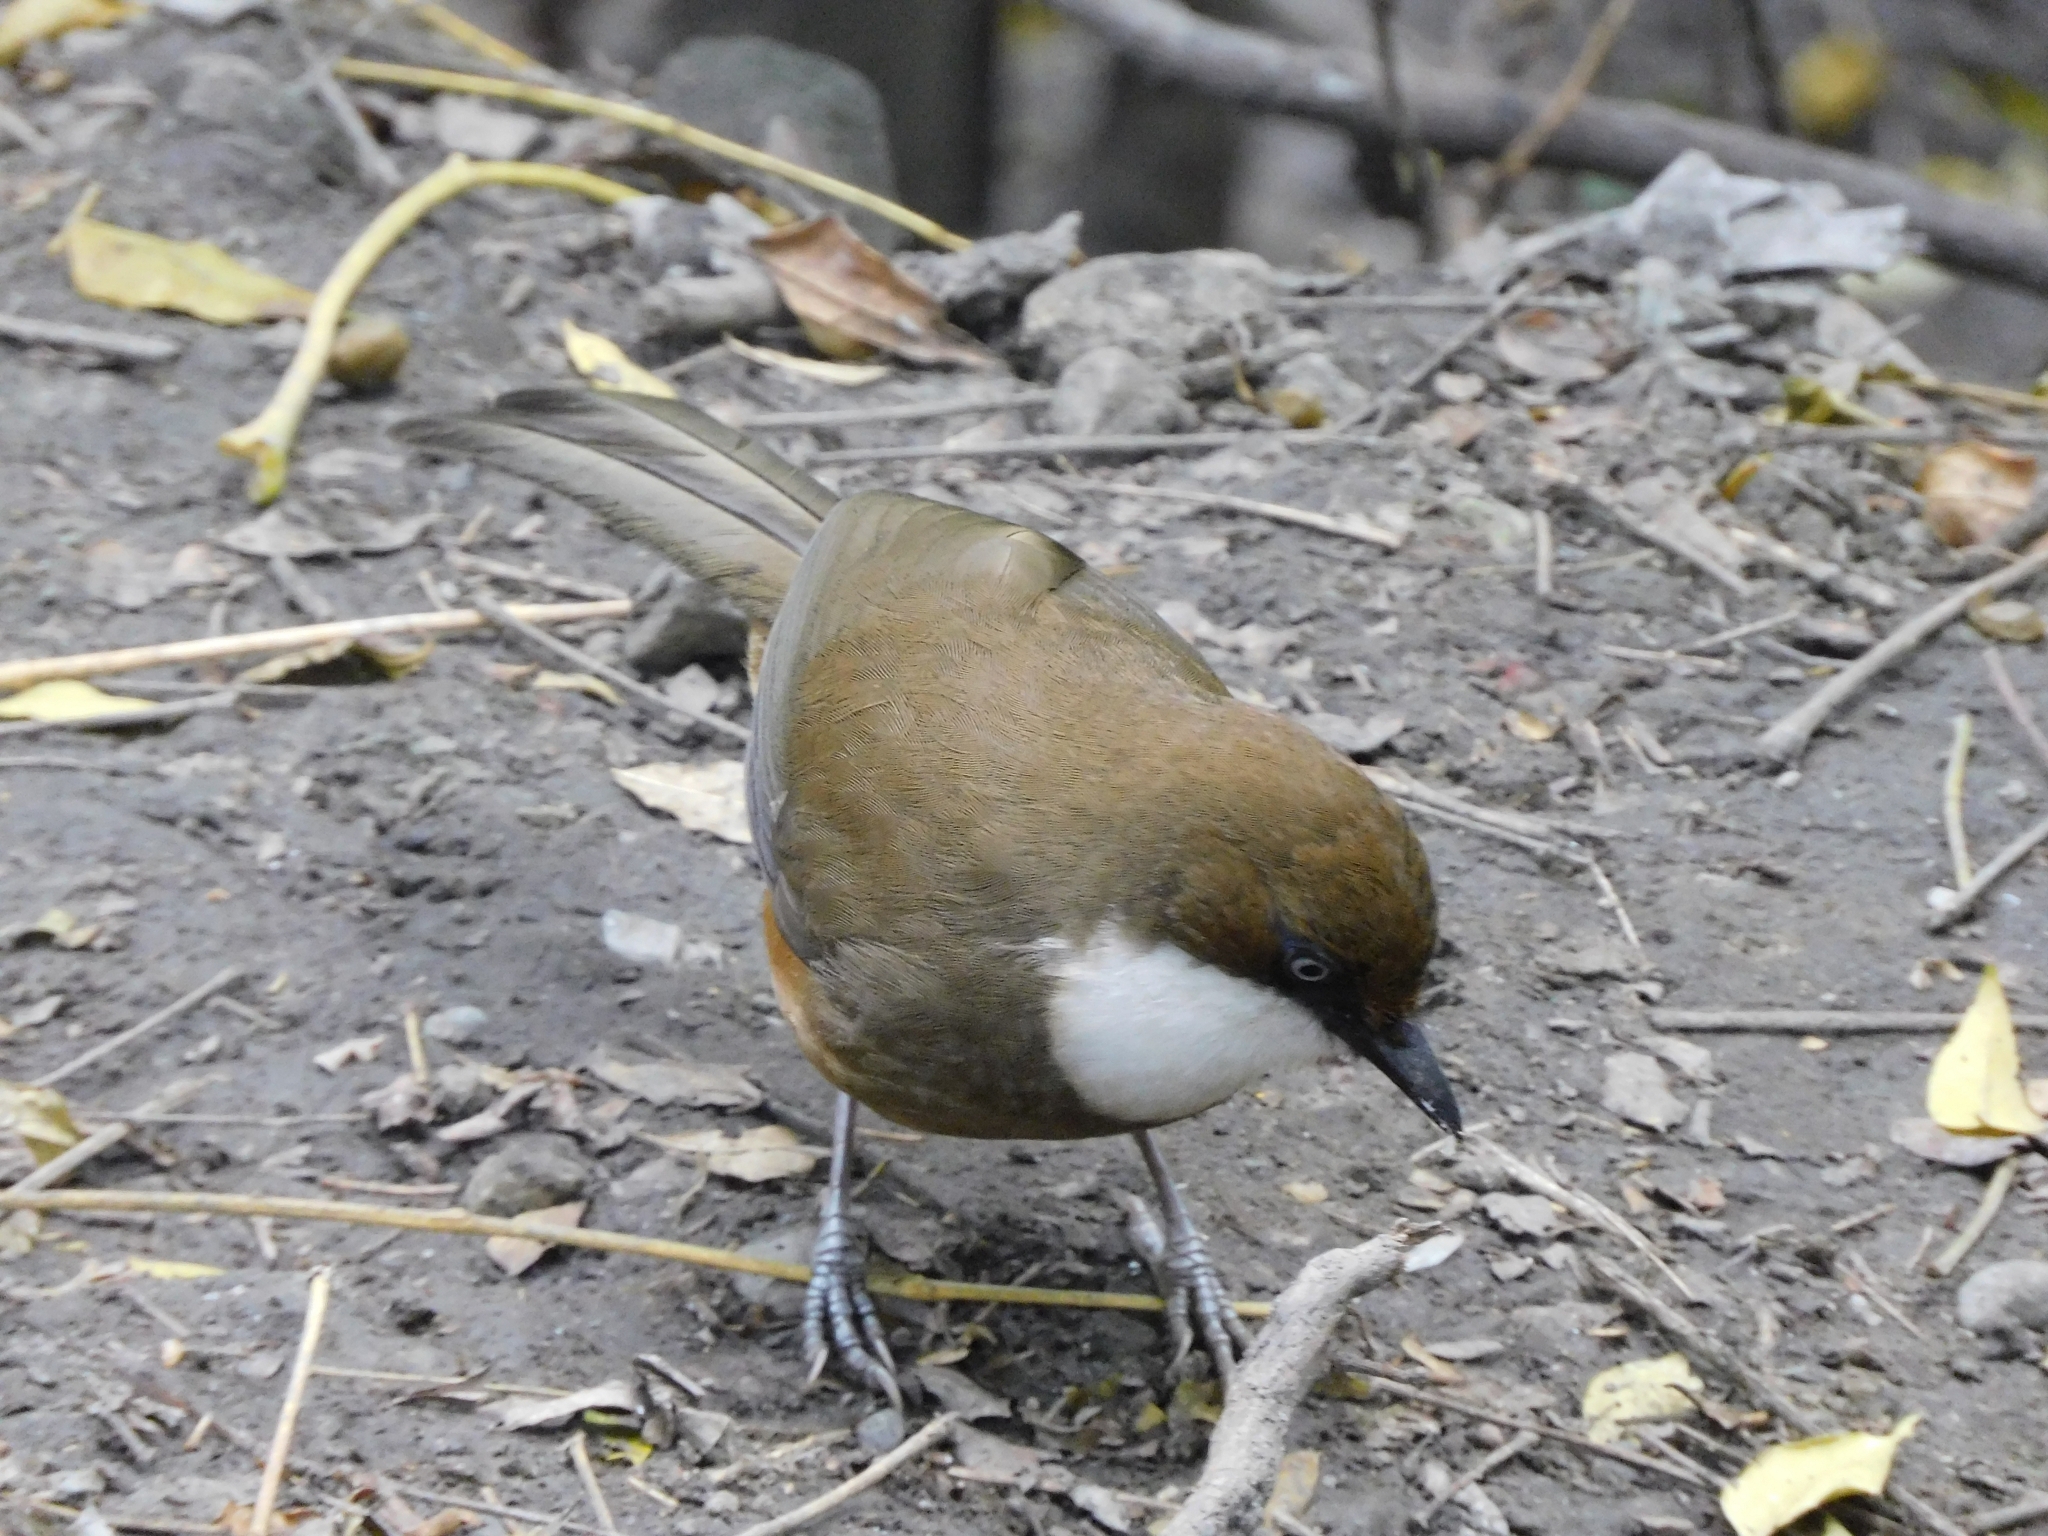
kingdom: Animalia
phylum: Chordata
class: Aves
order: Passeriformes
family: Leiothrichidae
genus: Garrulax
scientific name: Garrulax albogularis
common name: White-throated laughingthrush
